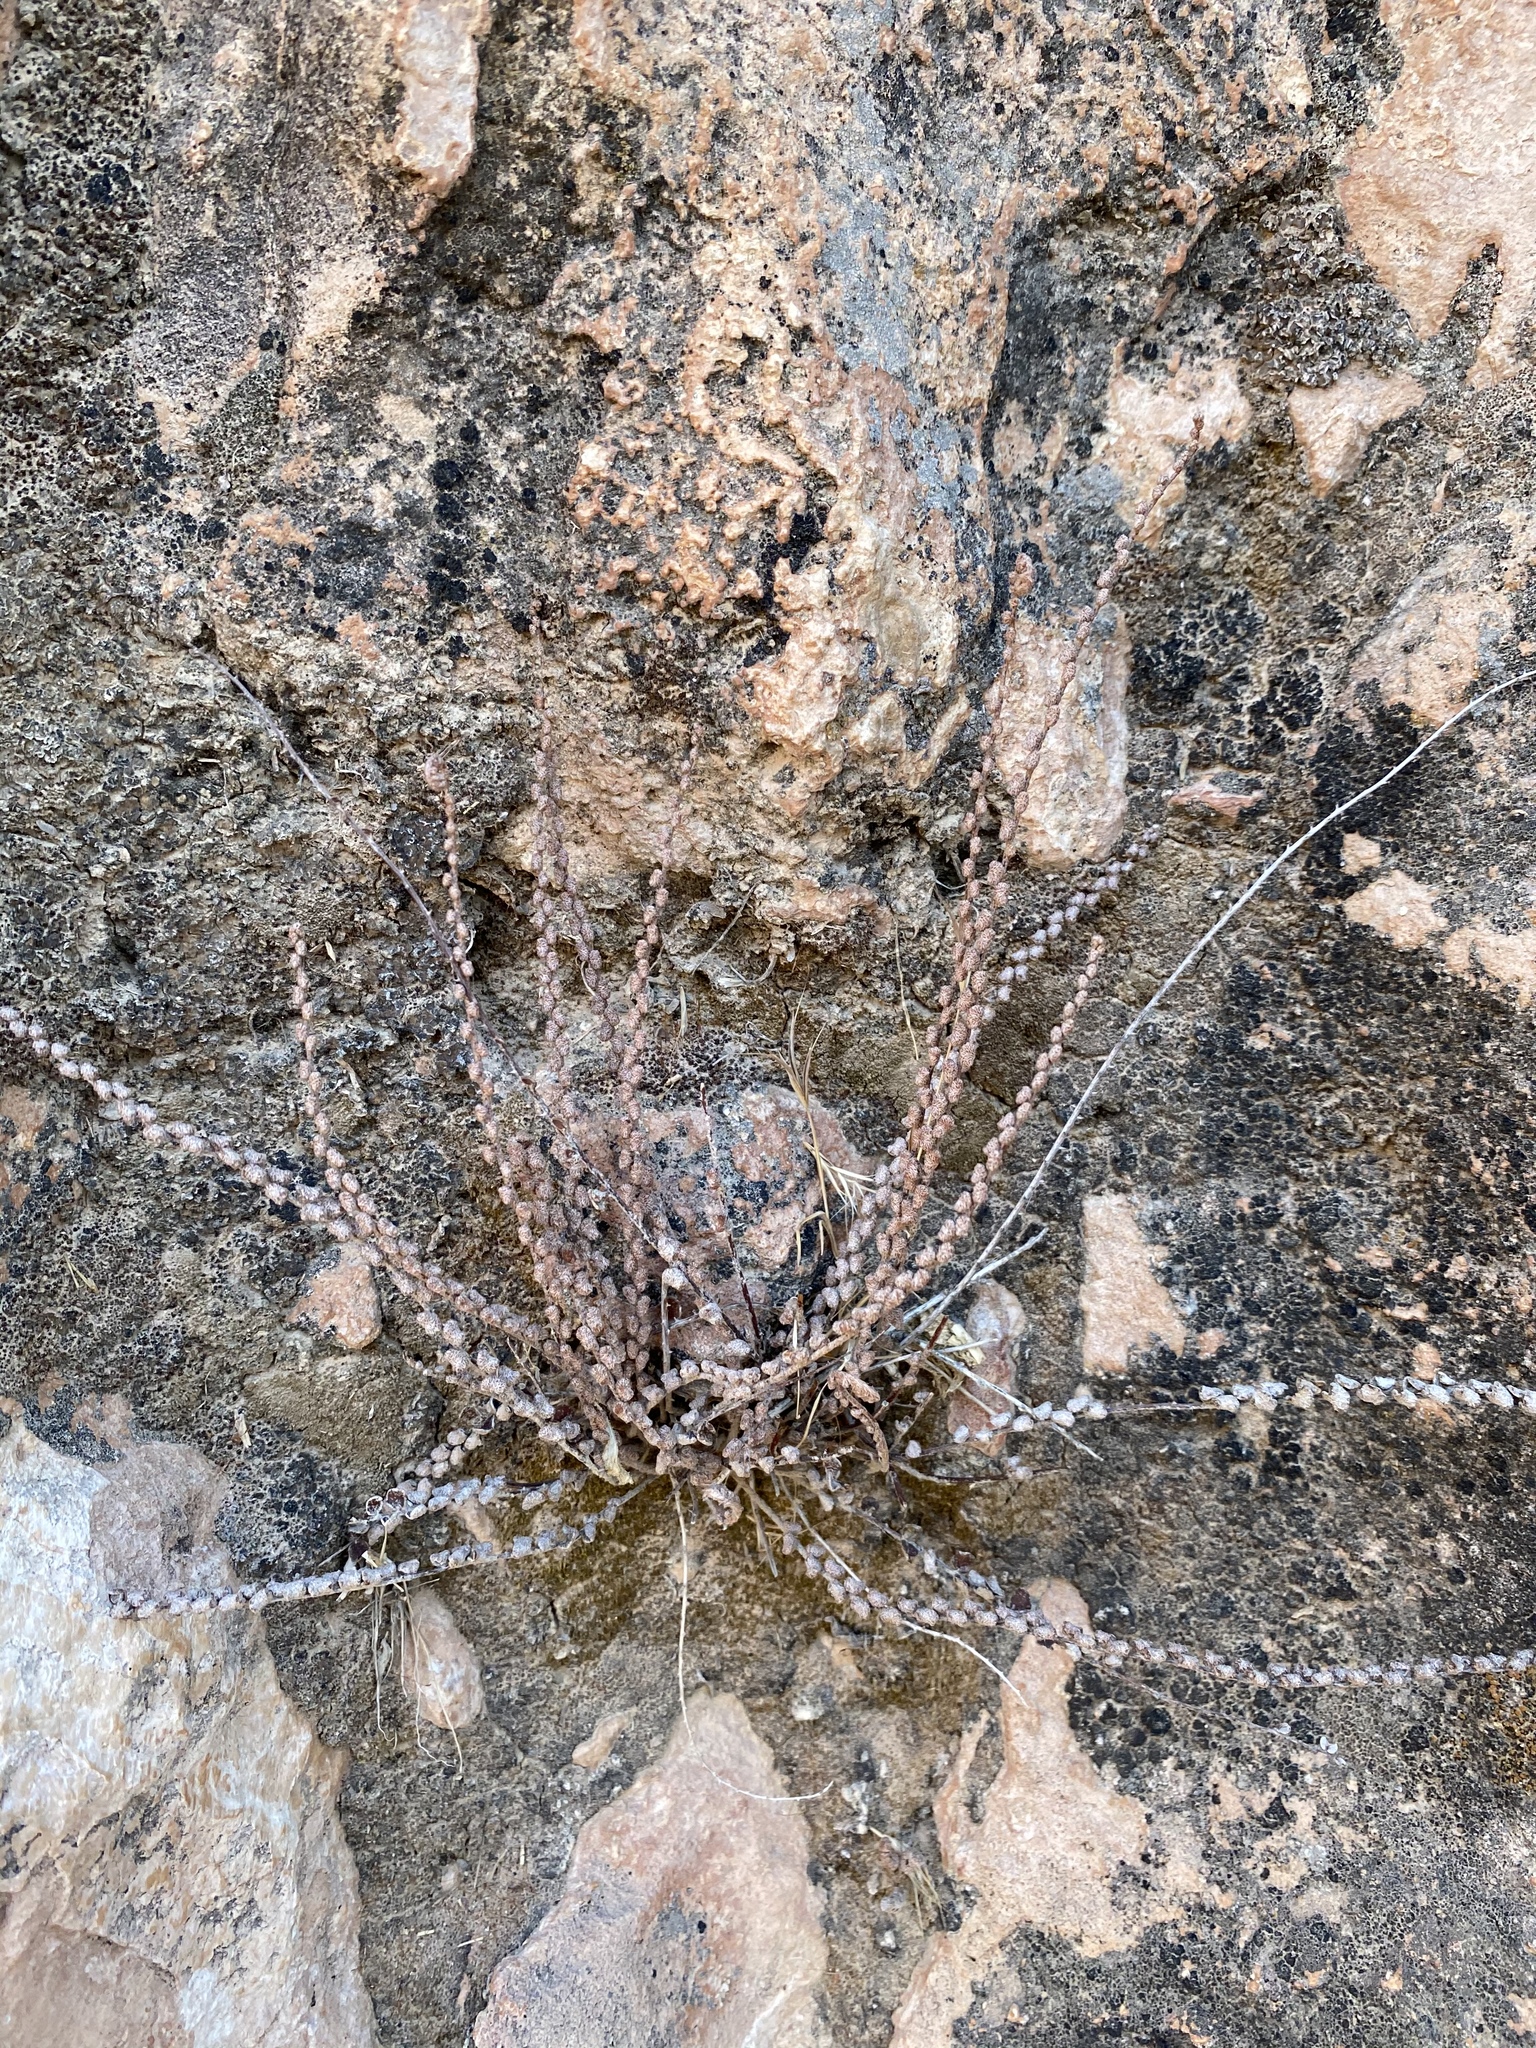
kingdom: Plantae
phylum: Tracheophyta
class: Polypodiopsida
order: Polypodiales
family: Pteridaceae
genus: Astrolepis
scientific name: Astrolepis cochisensis
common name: Scaly cloak fern
